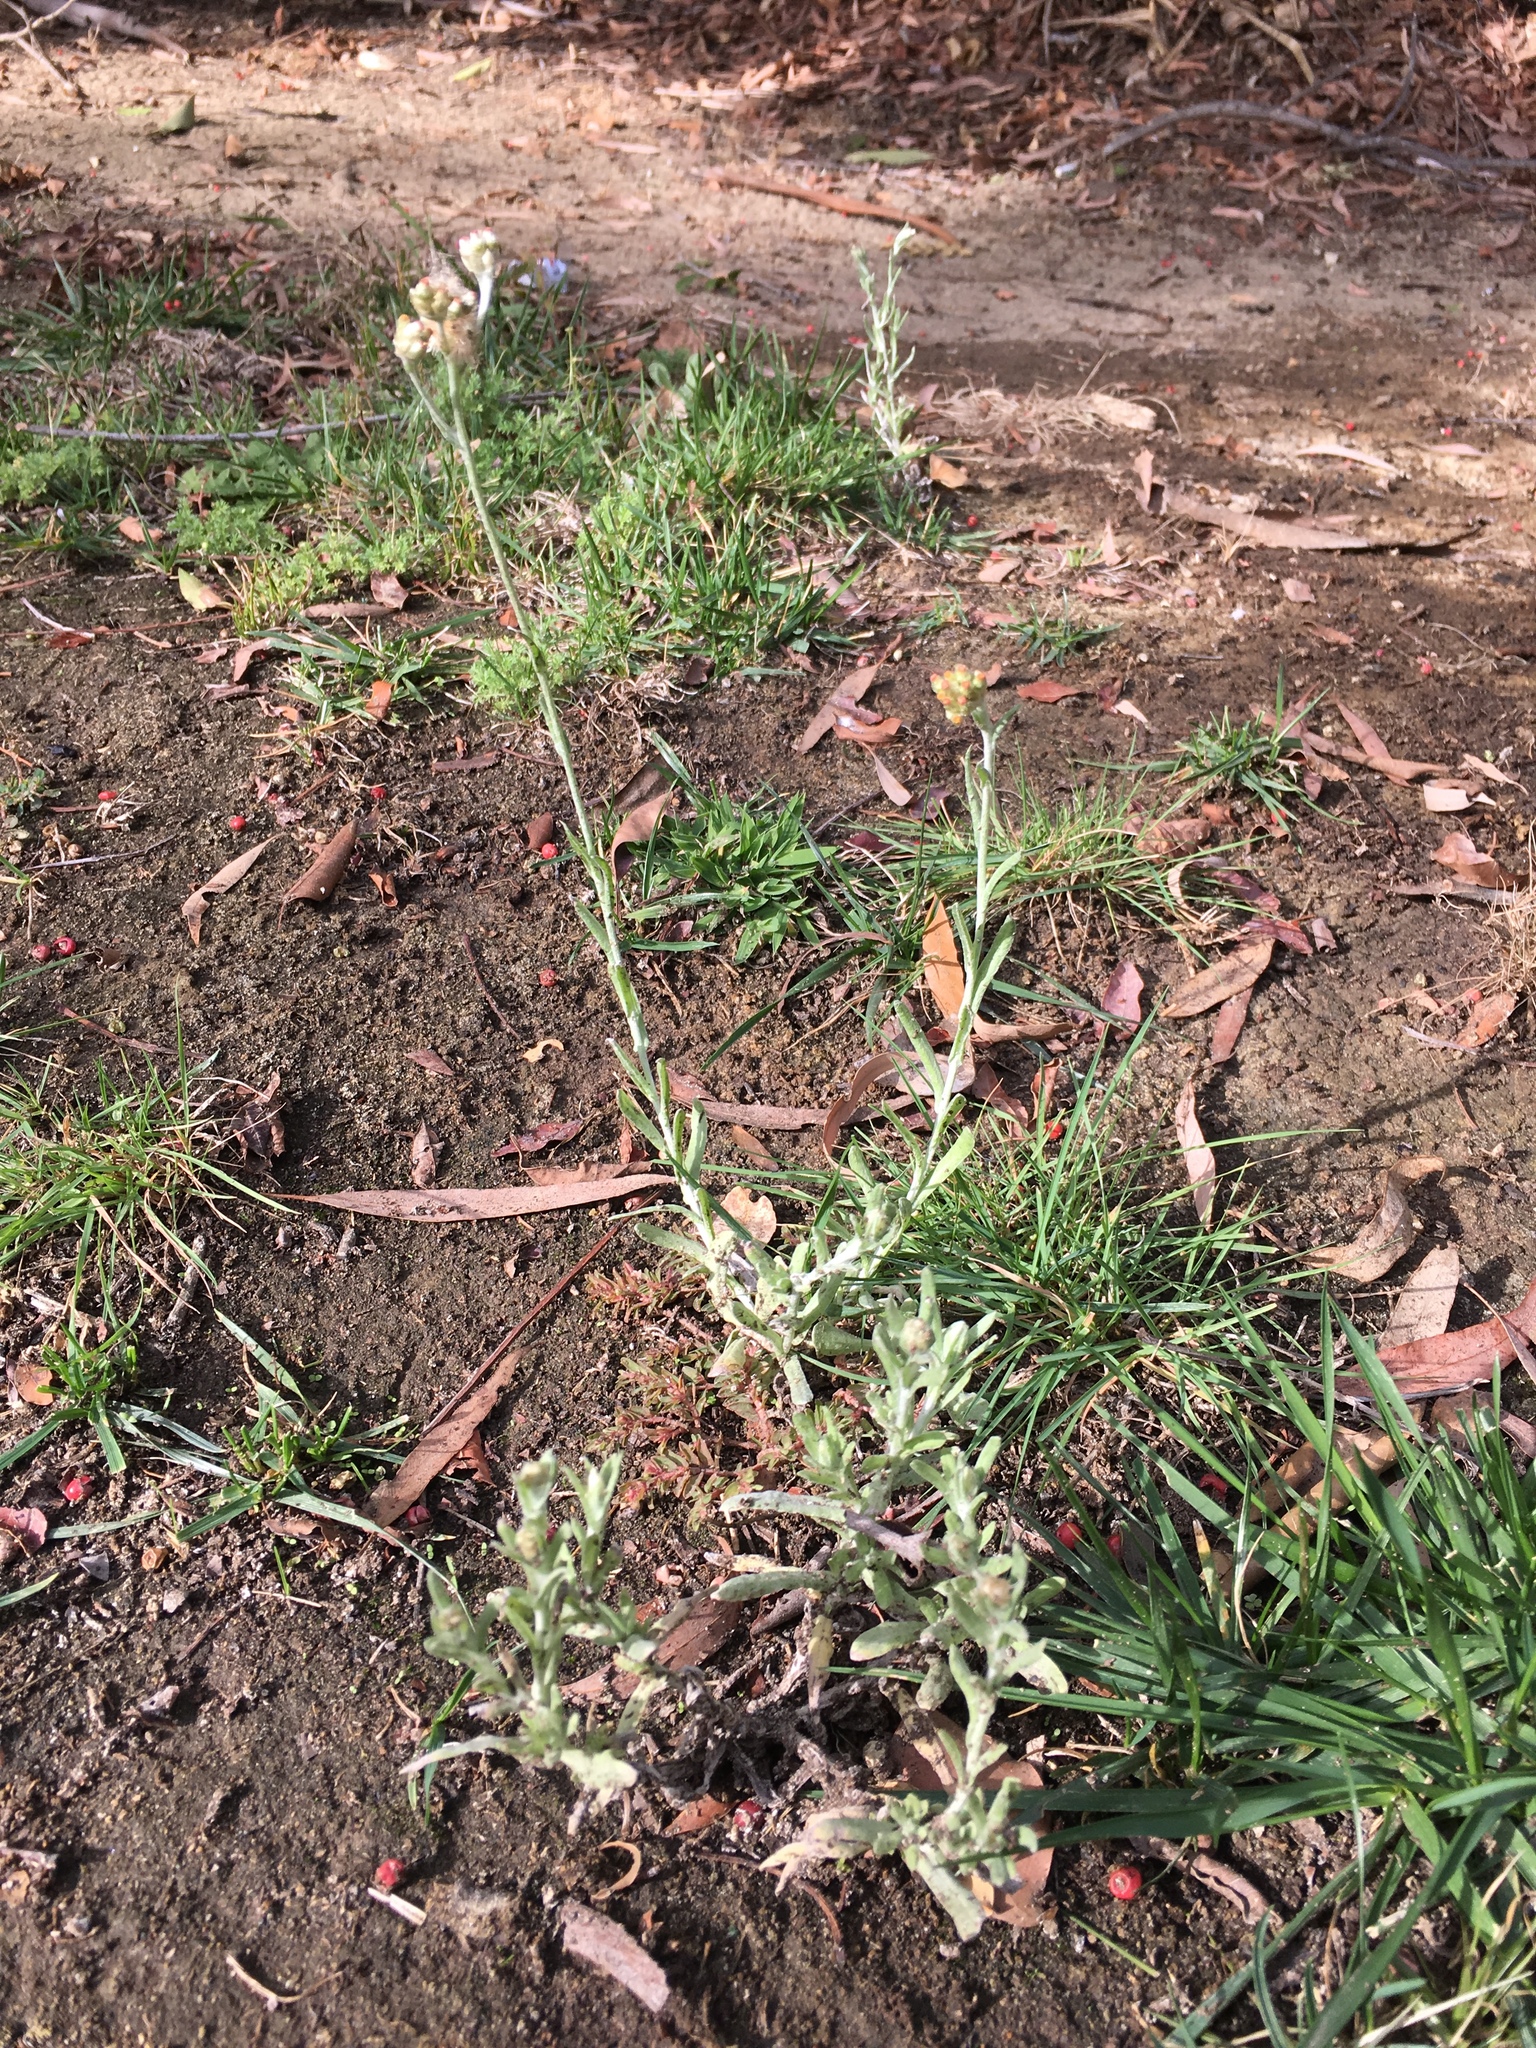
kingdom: Plantae
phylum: Tracheophyta
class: Magnoliopsida
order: Asterales
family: Asteraceae
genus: Helichrysum
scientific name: Helichrysum luteoalbum
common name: Daisy
